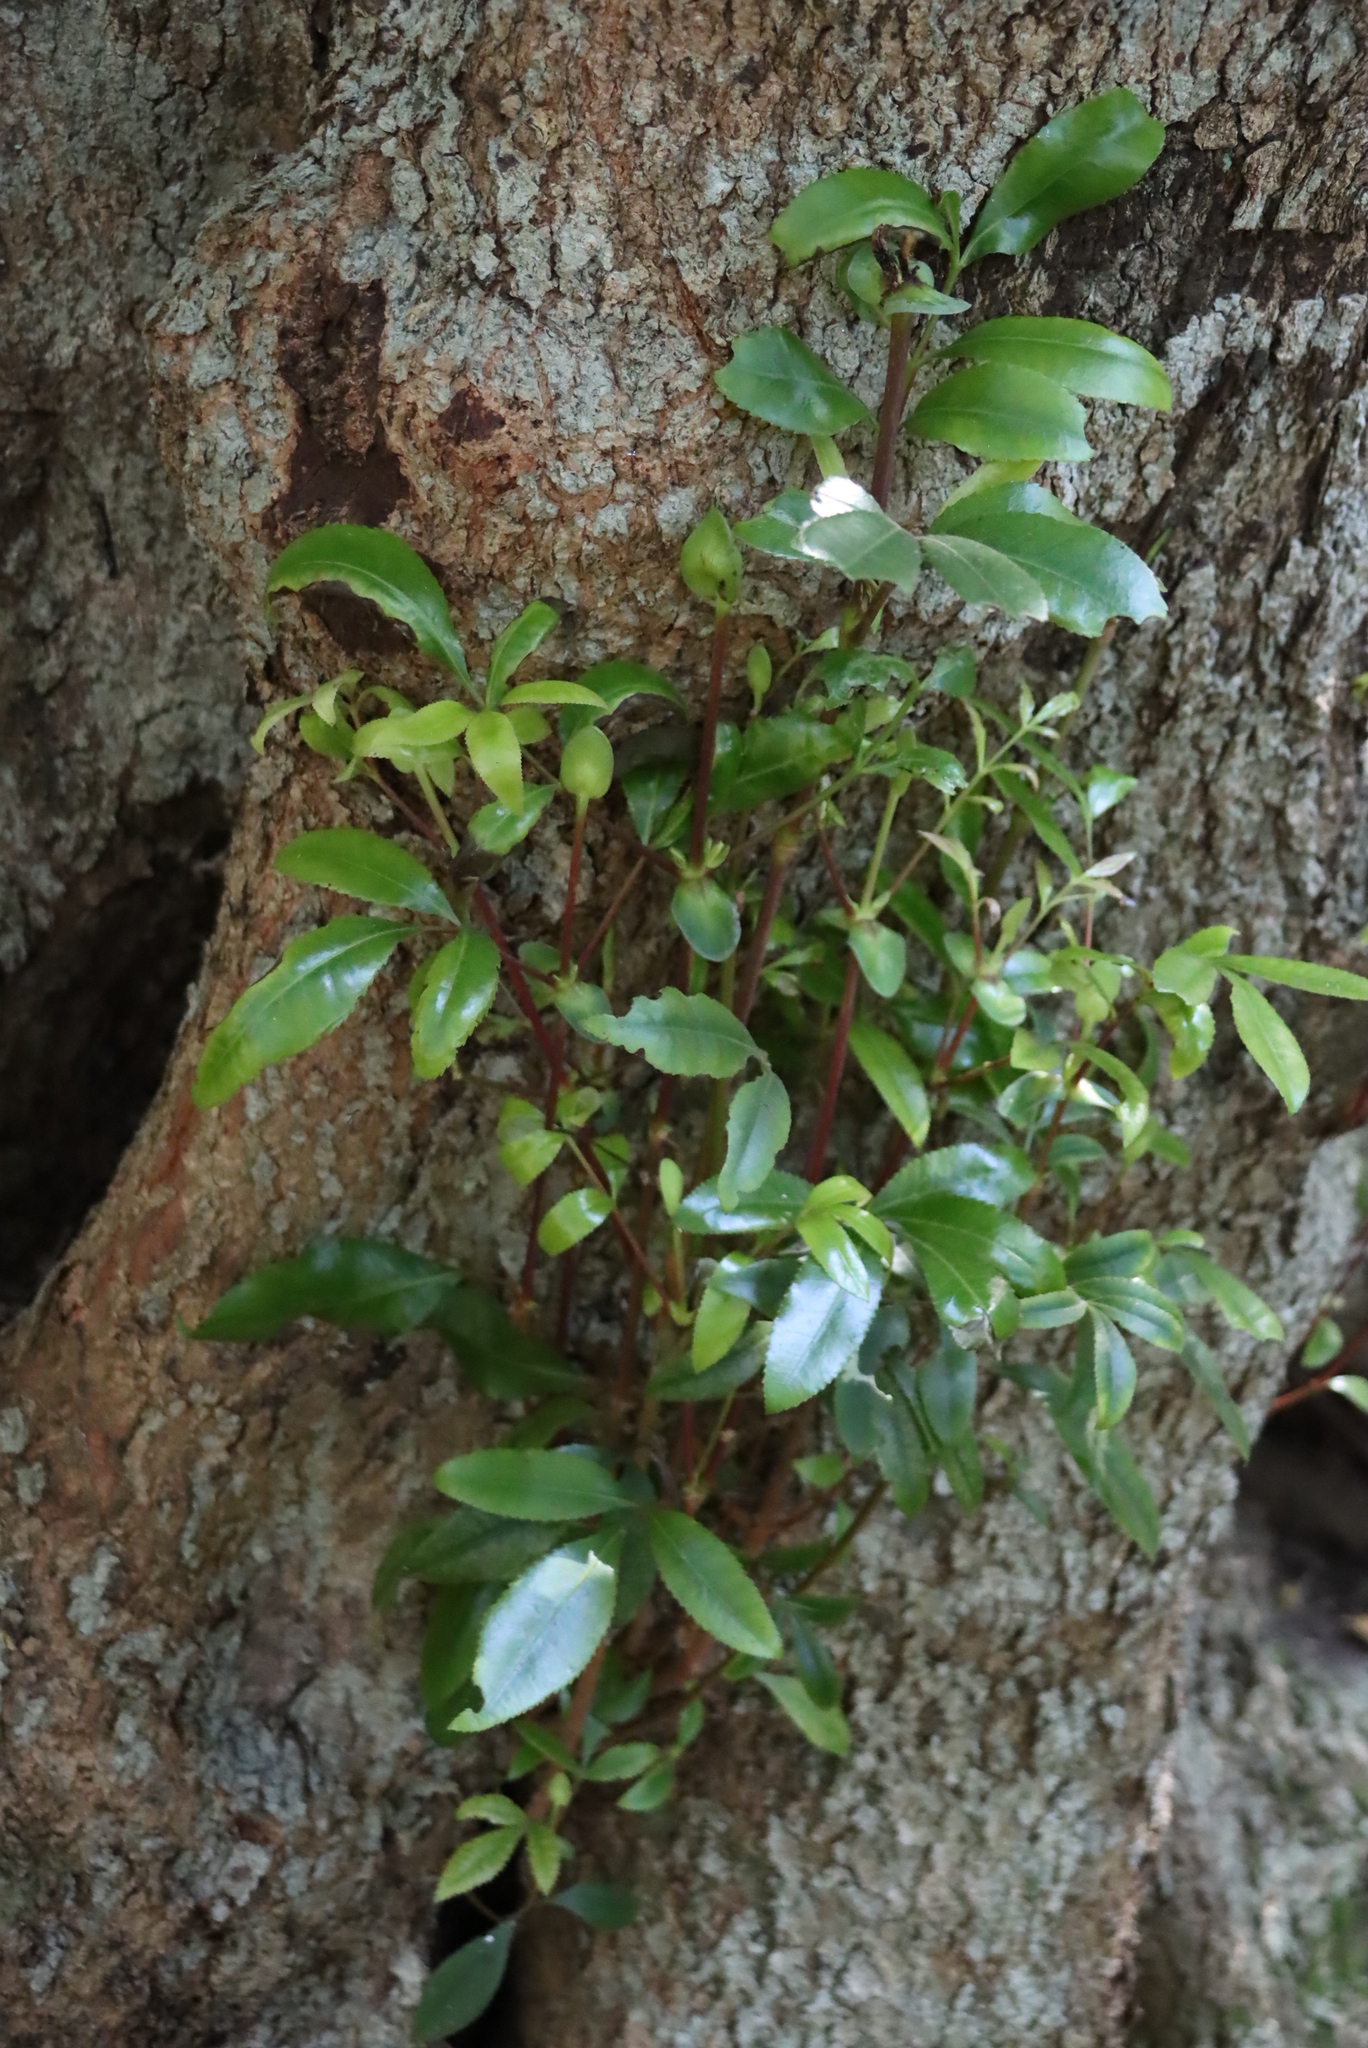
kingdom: Plantae
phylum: Tracheophyta
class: Magnoliopsida
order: Oxalidales
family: Cunoniaceae
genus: Cunonia
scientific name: Cunonia capensis
